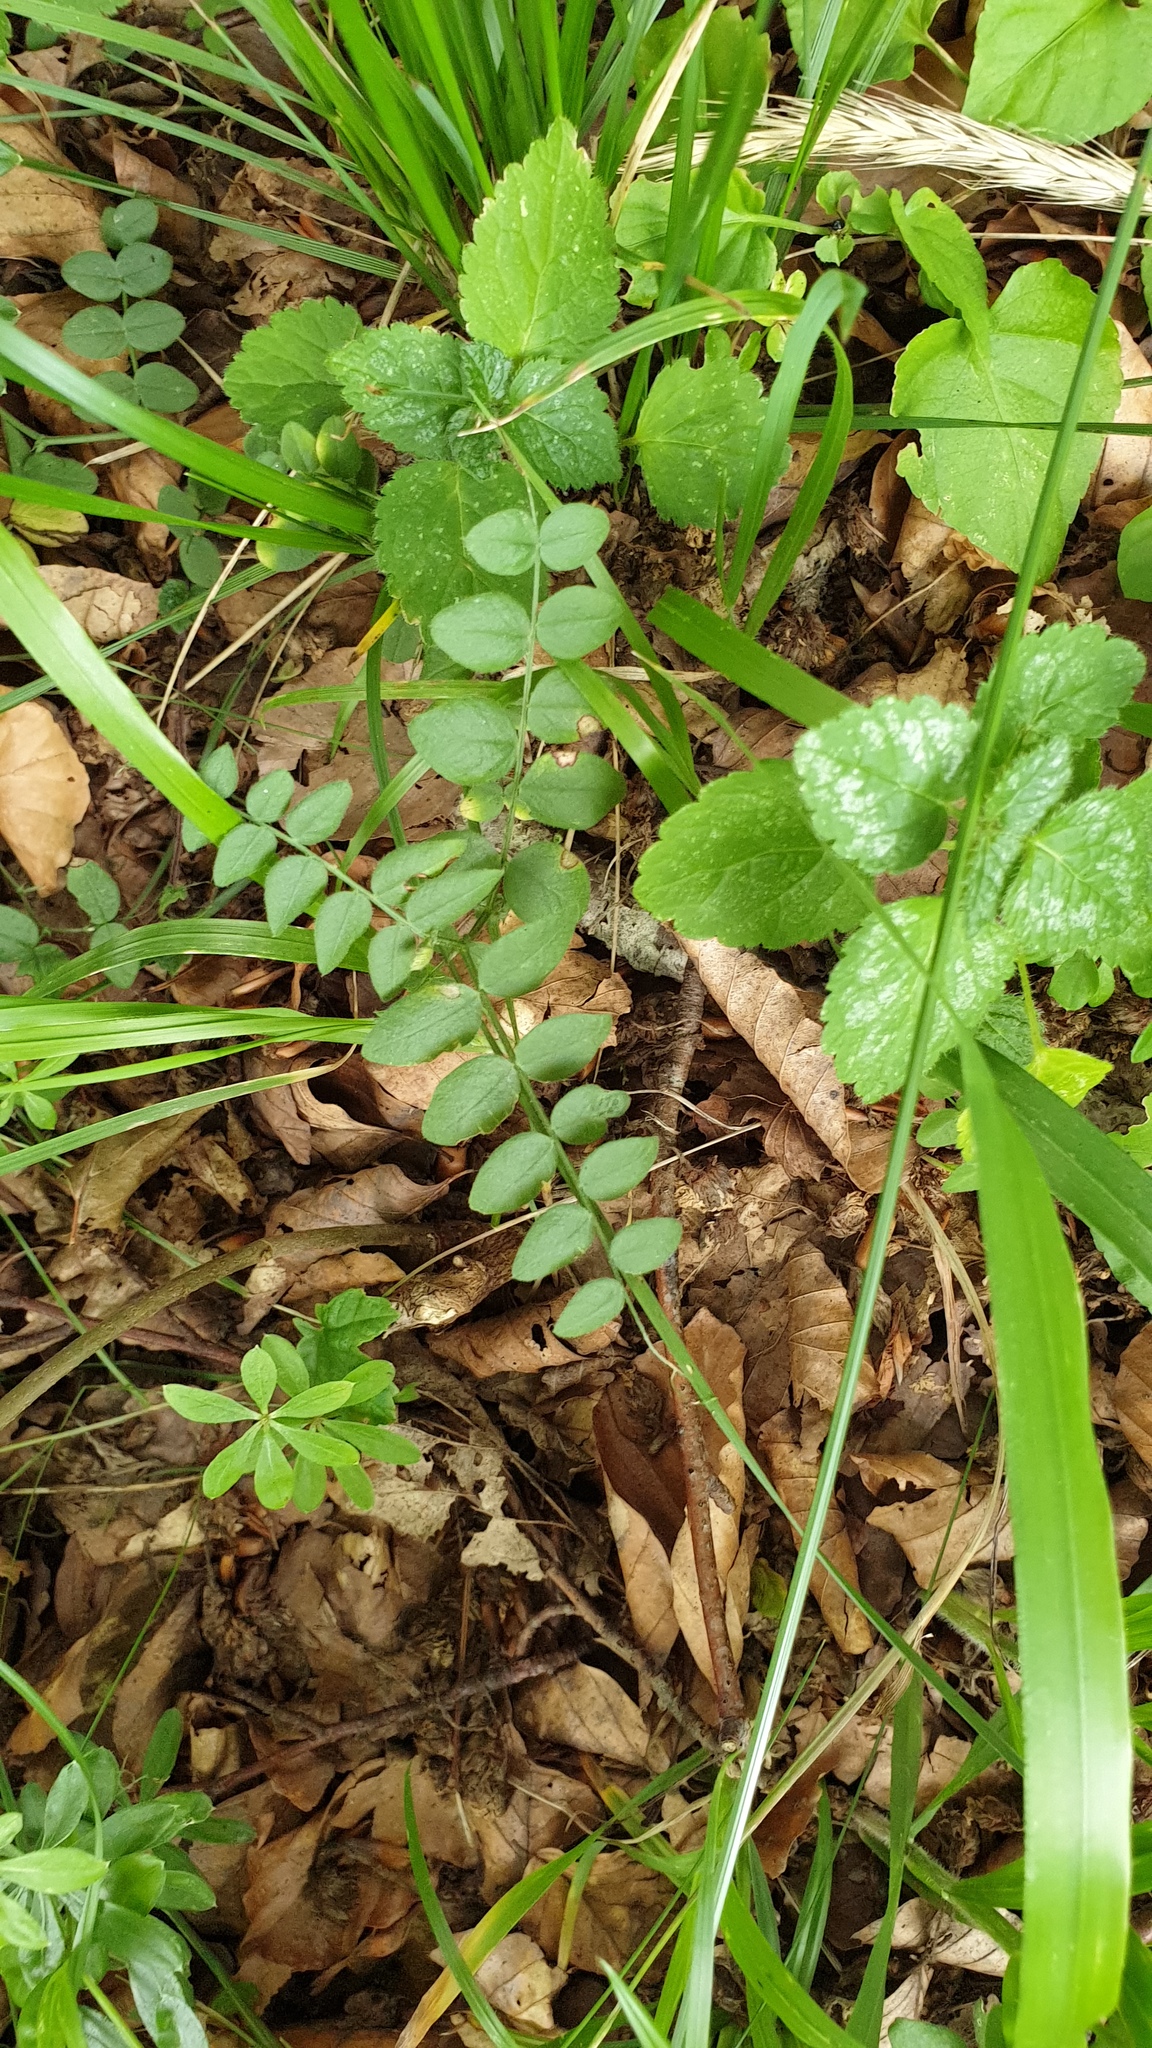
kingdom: Plantae
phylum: Tracheophyta
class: Magnoliopsida
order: Fabales
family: Fabaceae
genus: Vicia
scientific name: Vicia sepium
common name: Bush vetch
